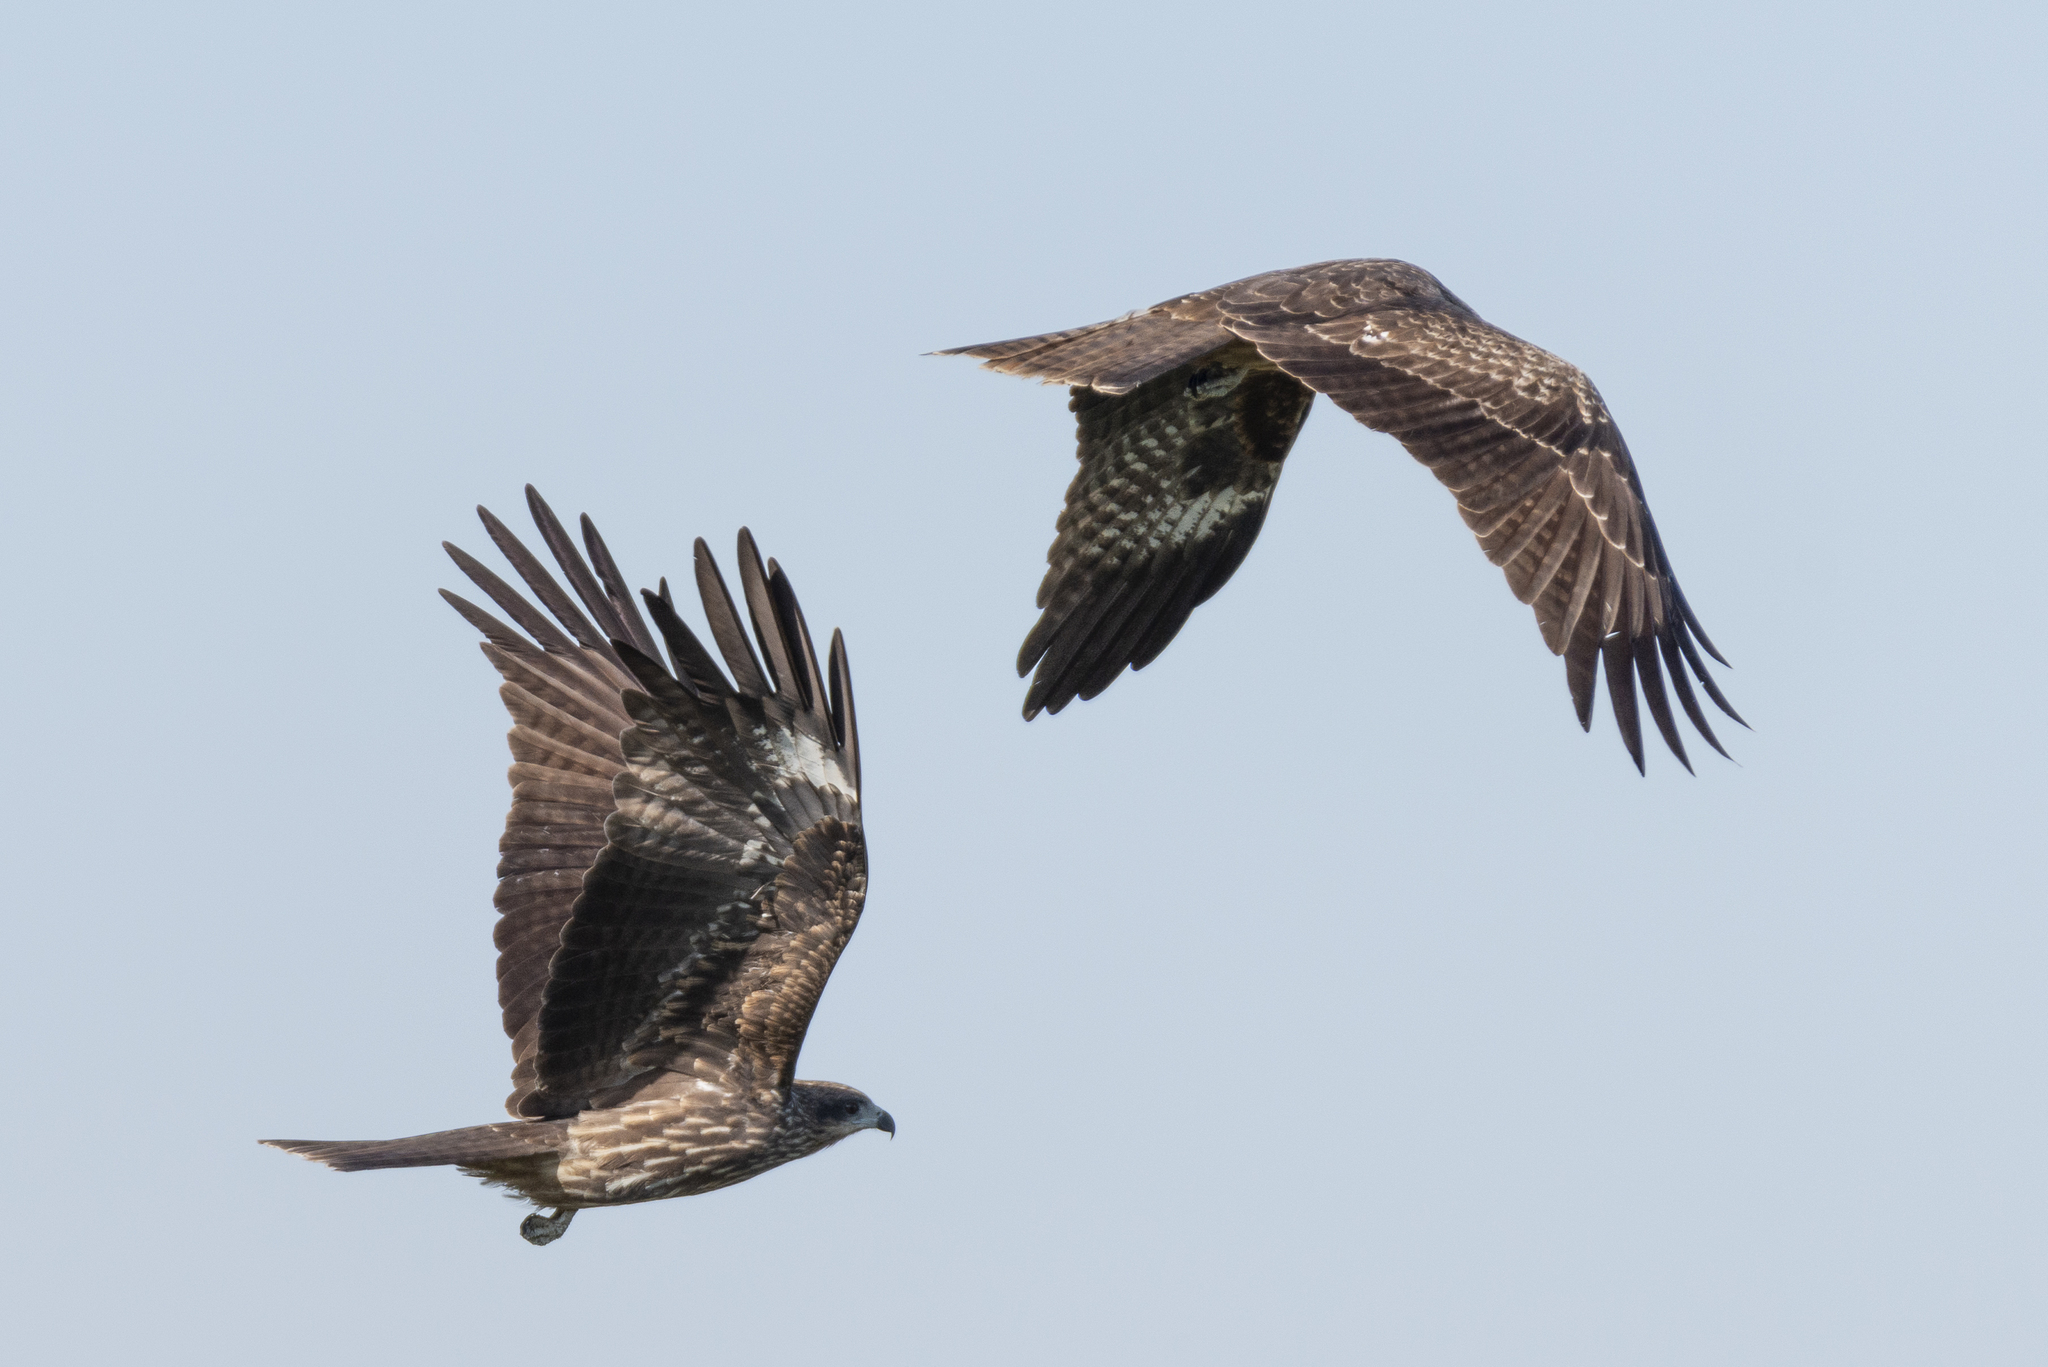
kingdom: Animalia
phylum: Chordata
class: Aves
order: Accipitriformes
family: Accipitridae
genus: Milvus
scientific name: Milvus migrans
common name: Black kite
